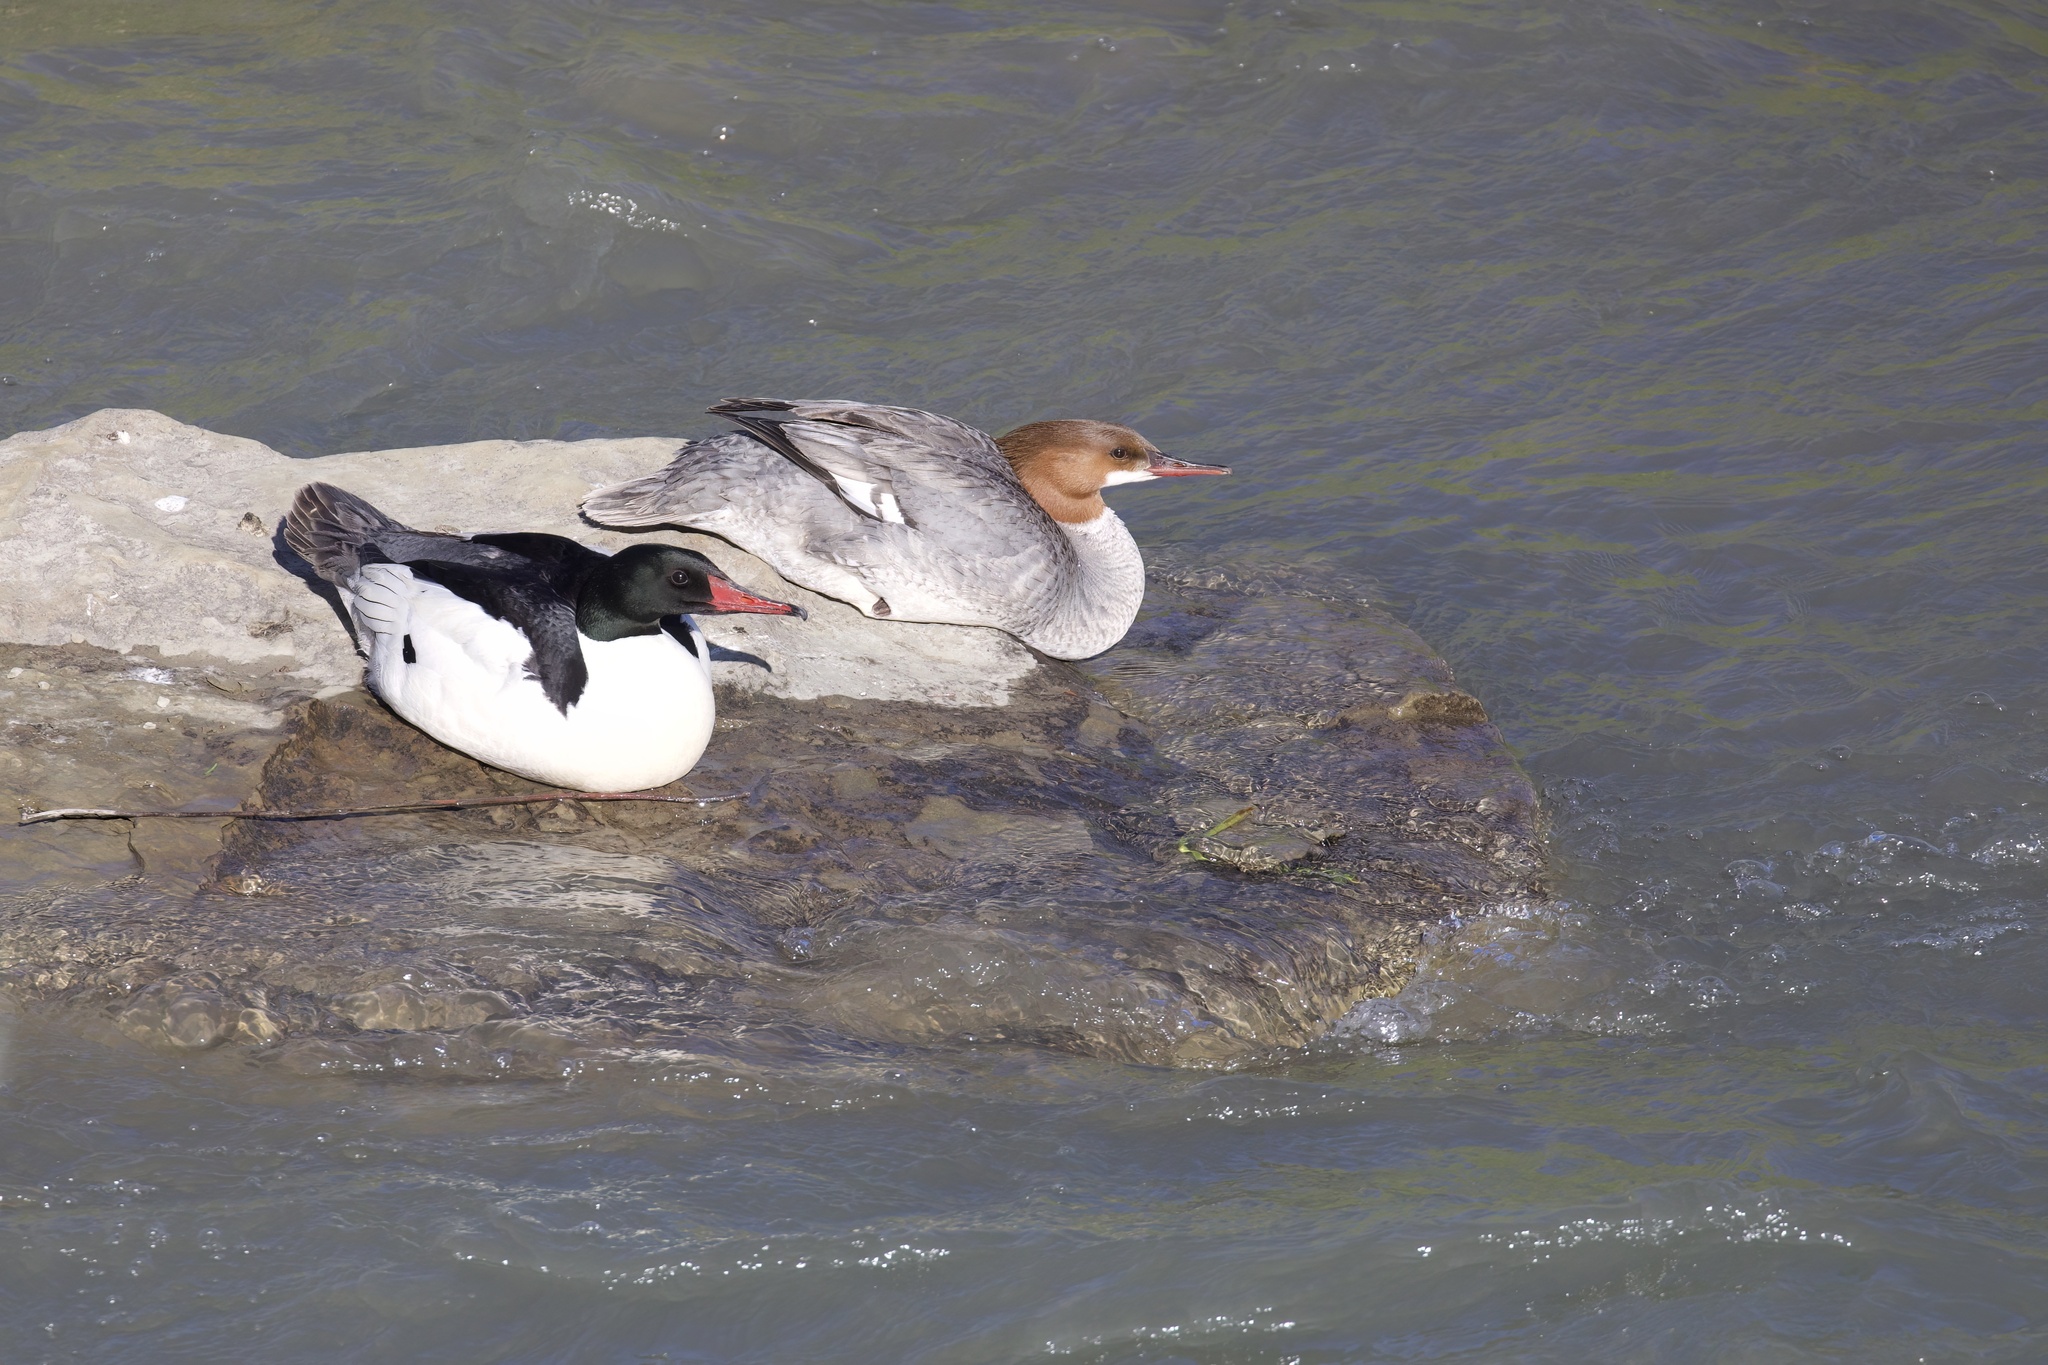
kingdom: Animalia
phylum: Chordata
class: Aves
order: Anseriformes
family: Anatidae
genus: Mergus
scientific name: Mergus merganser
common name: Common merganser
